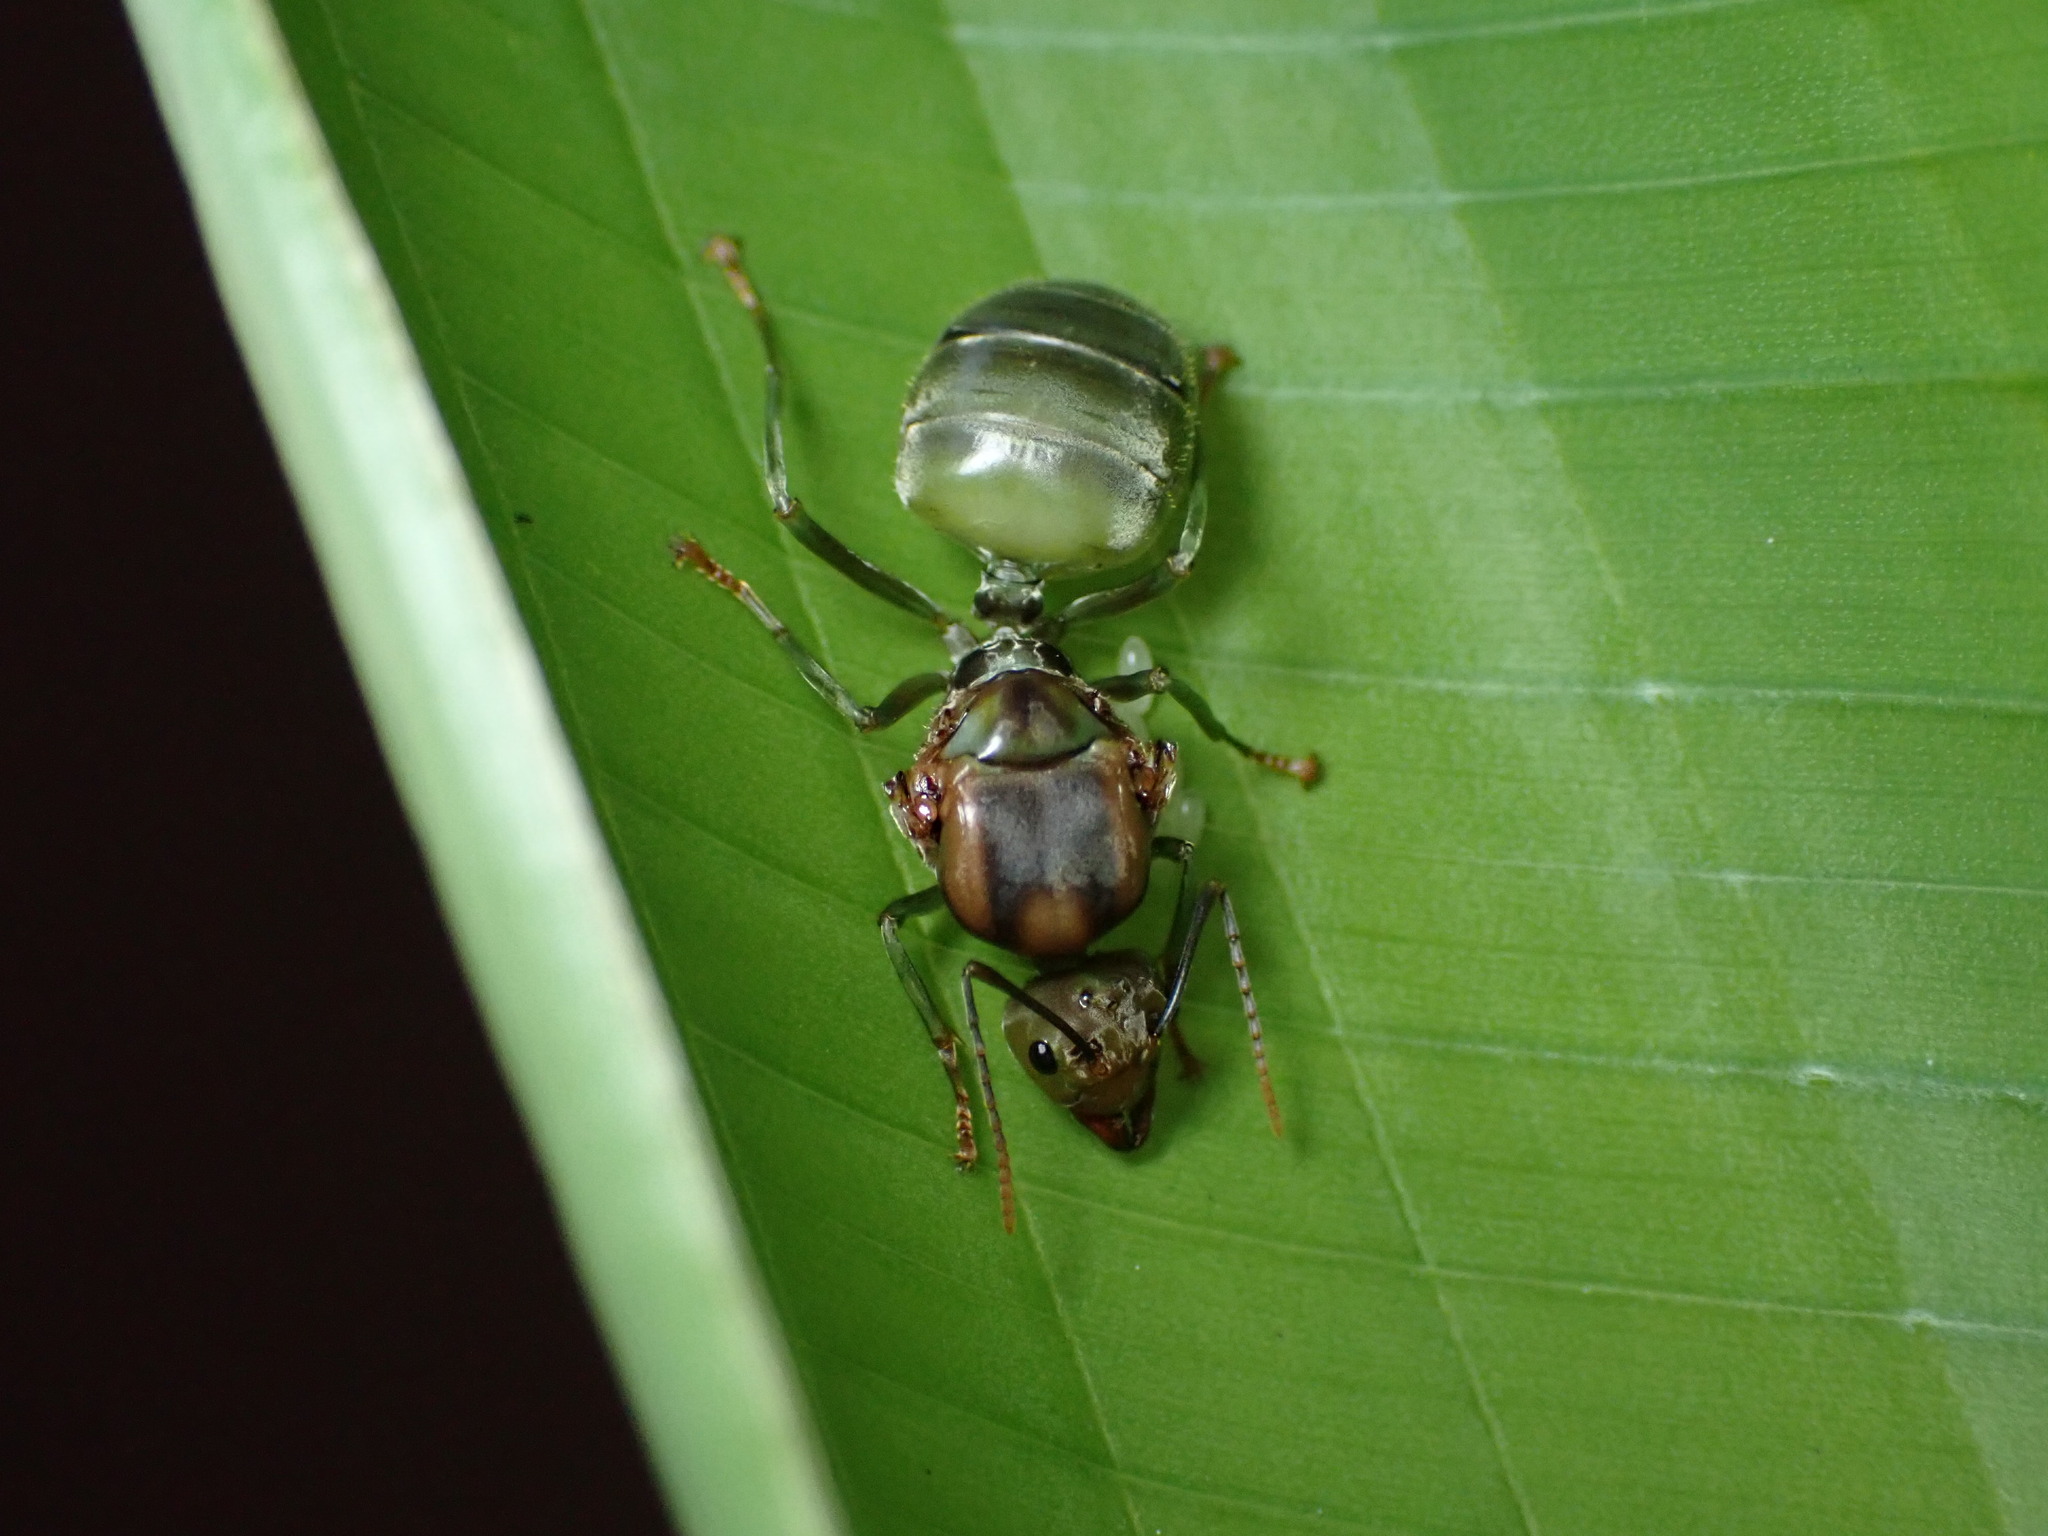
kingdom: Animalia
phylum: Arthropoda
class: Insecta
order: Hymenoptera
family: Formicidae
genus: Oecophylla
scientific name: Oecophylla smaragdina
